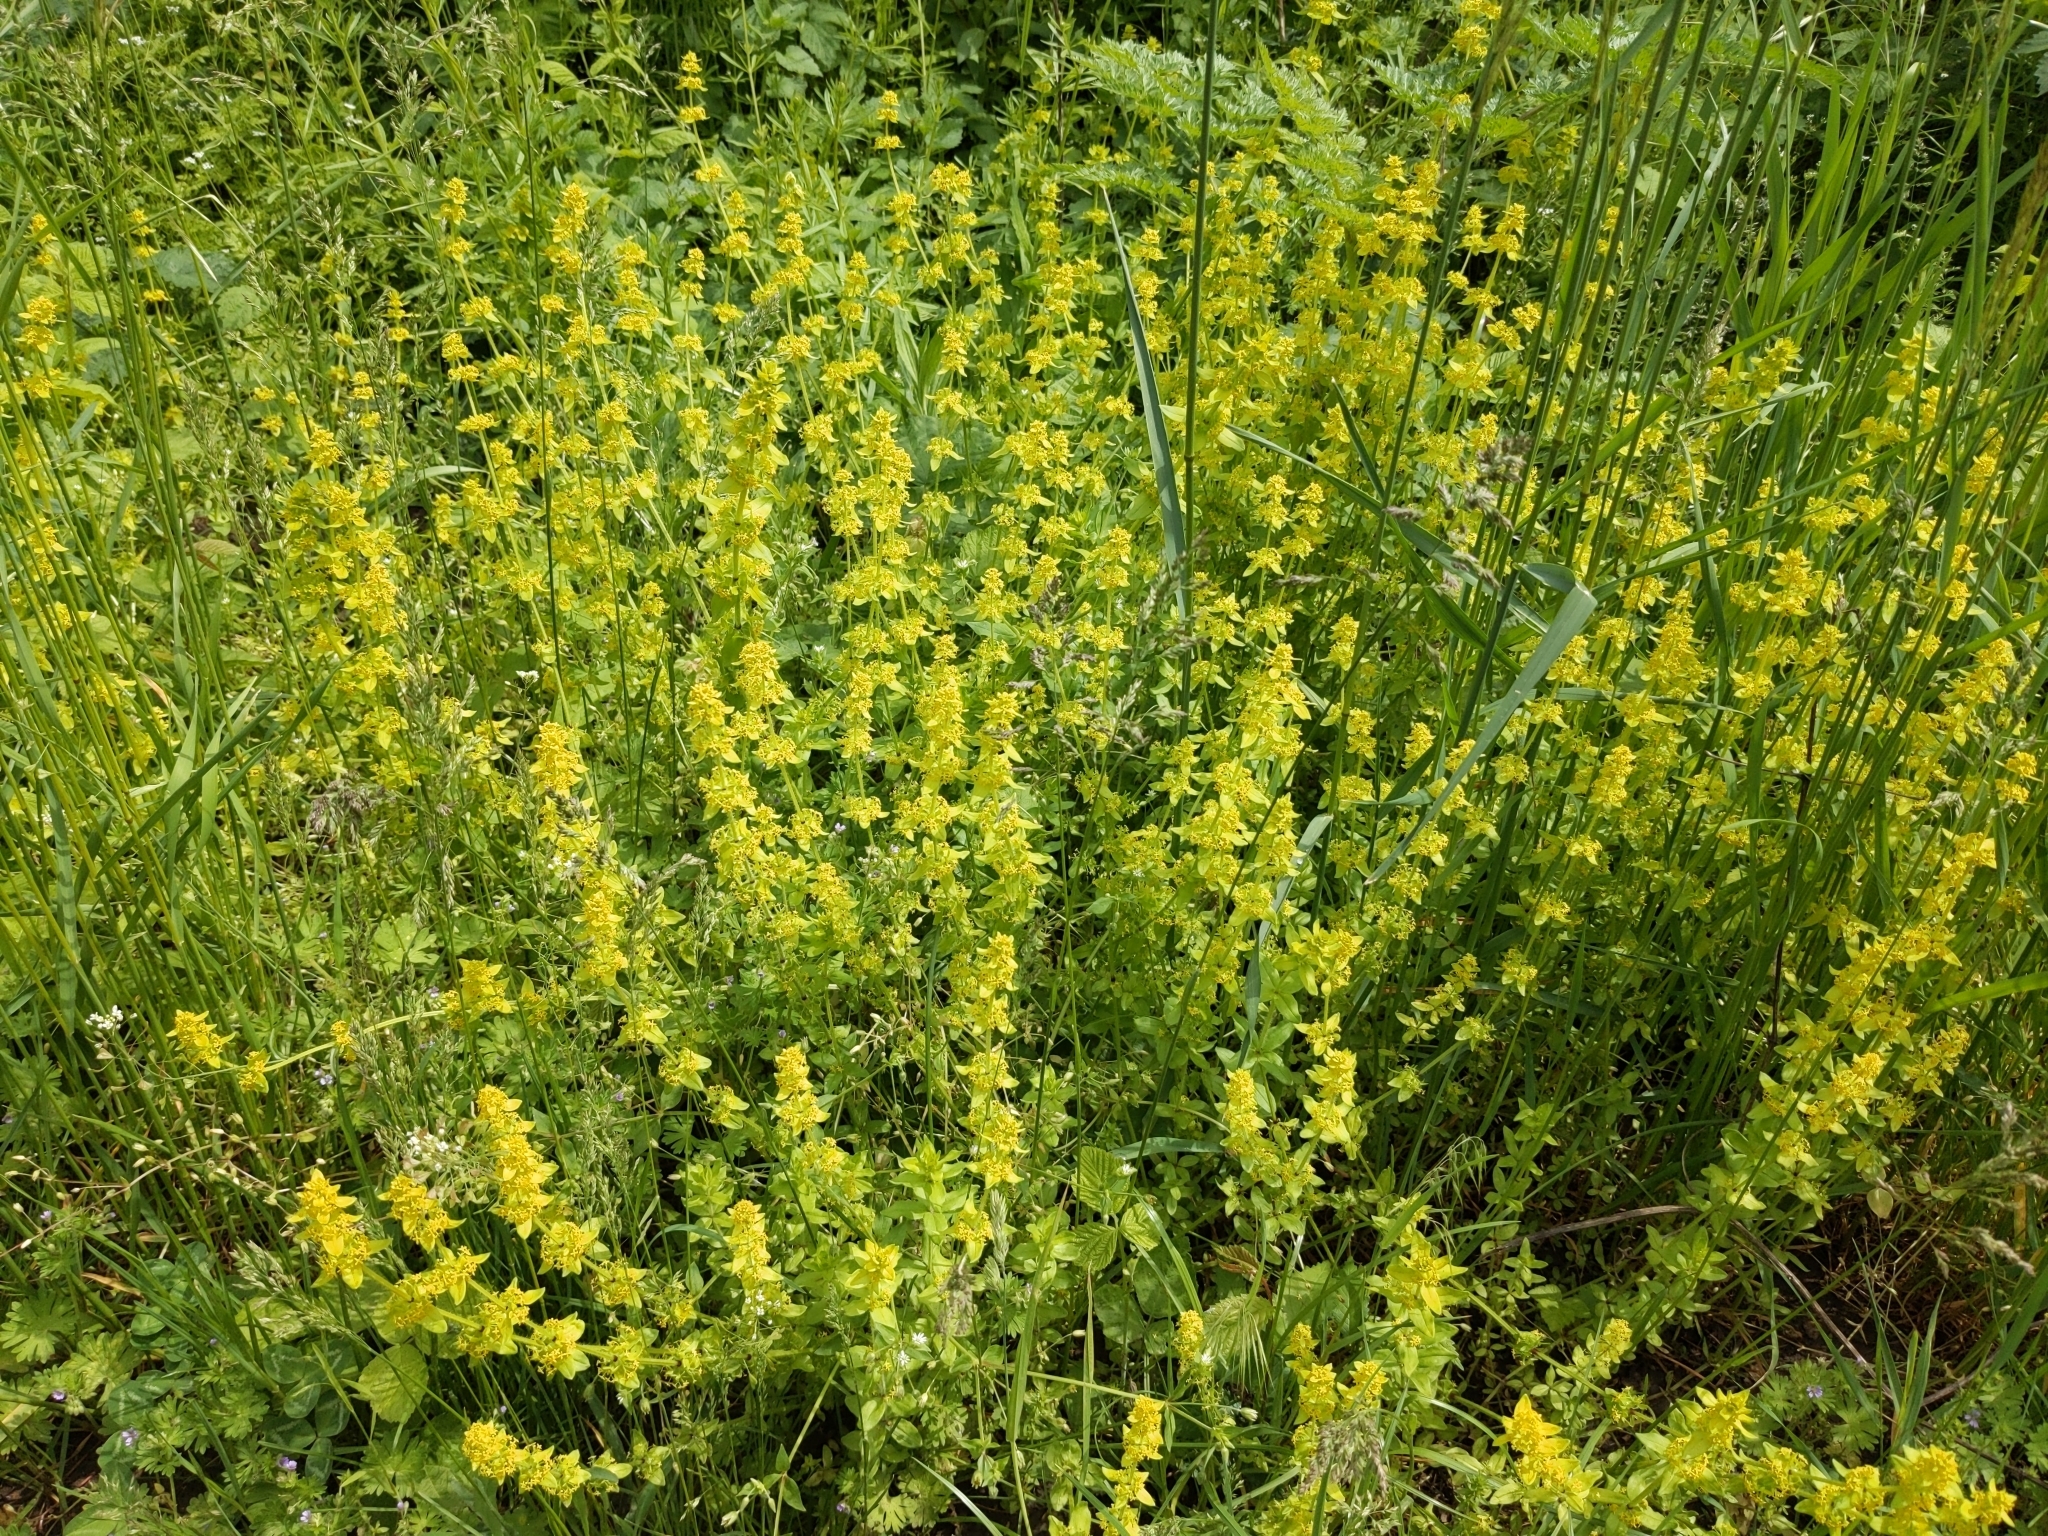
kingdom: Plantae
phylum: Tracheophyta
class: Magnoliopsida
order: Gentianales
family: Rubiaceae
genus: Cruciata
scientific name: Cruciata laevipes
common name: Crosswort
